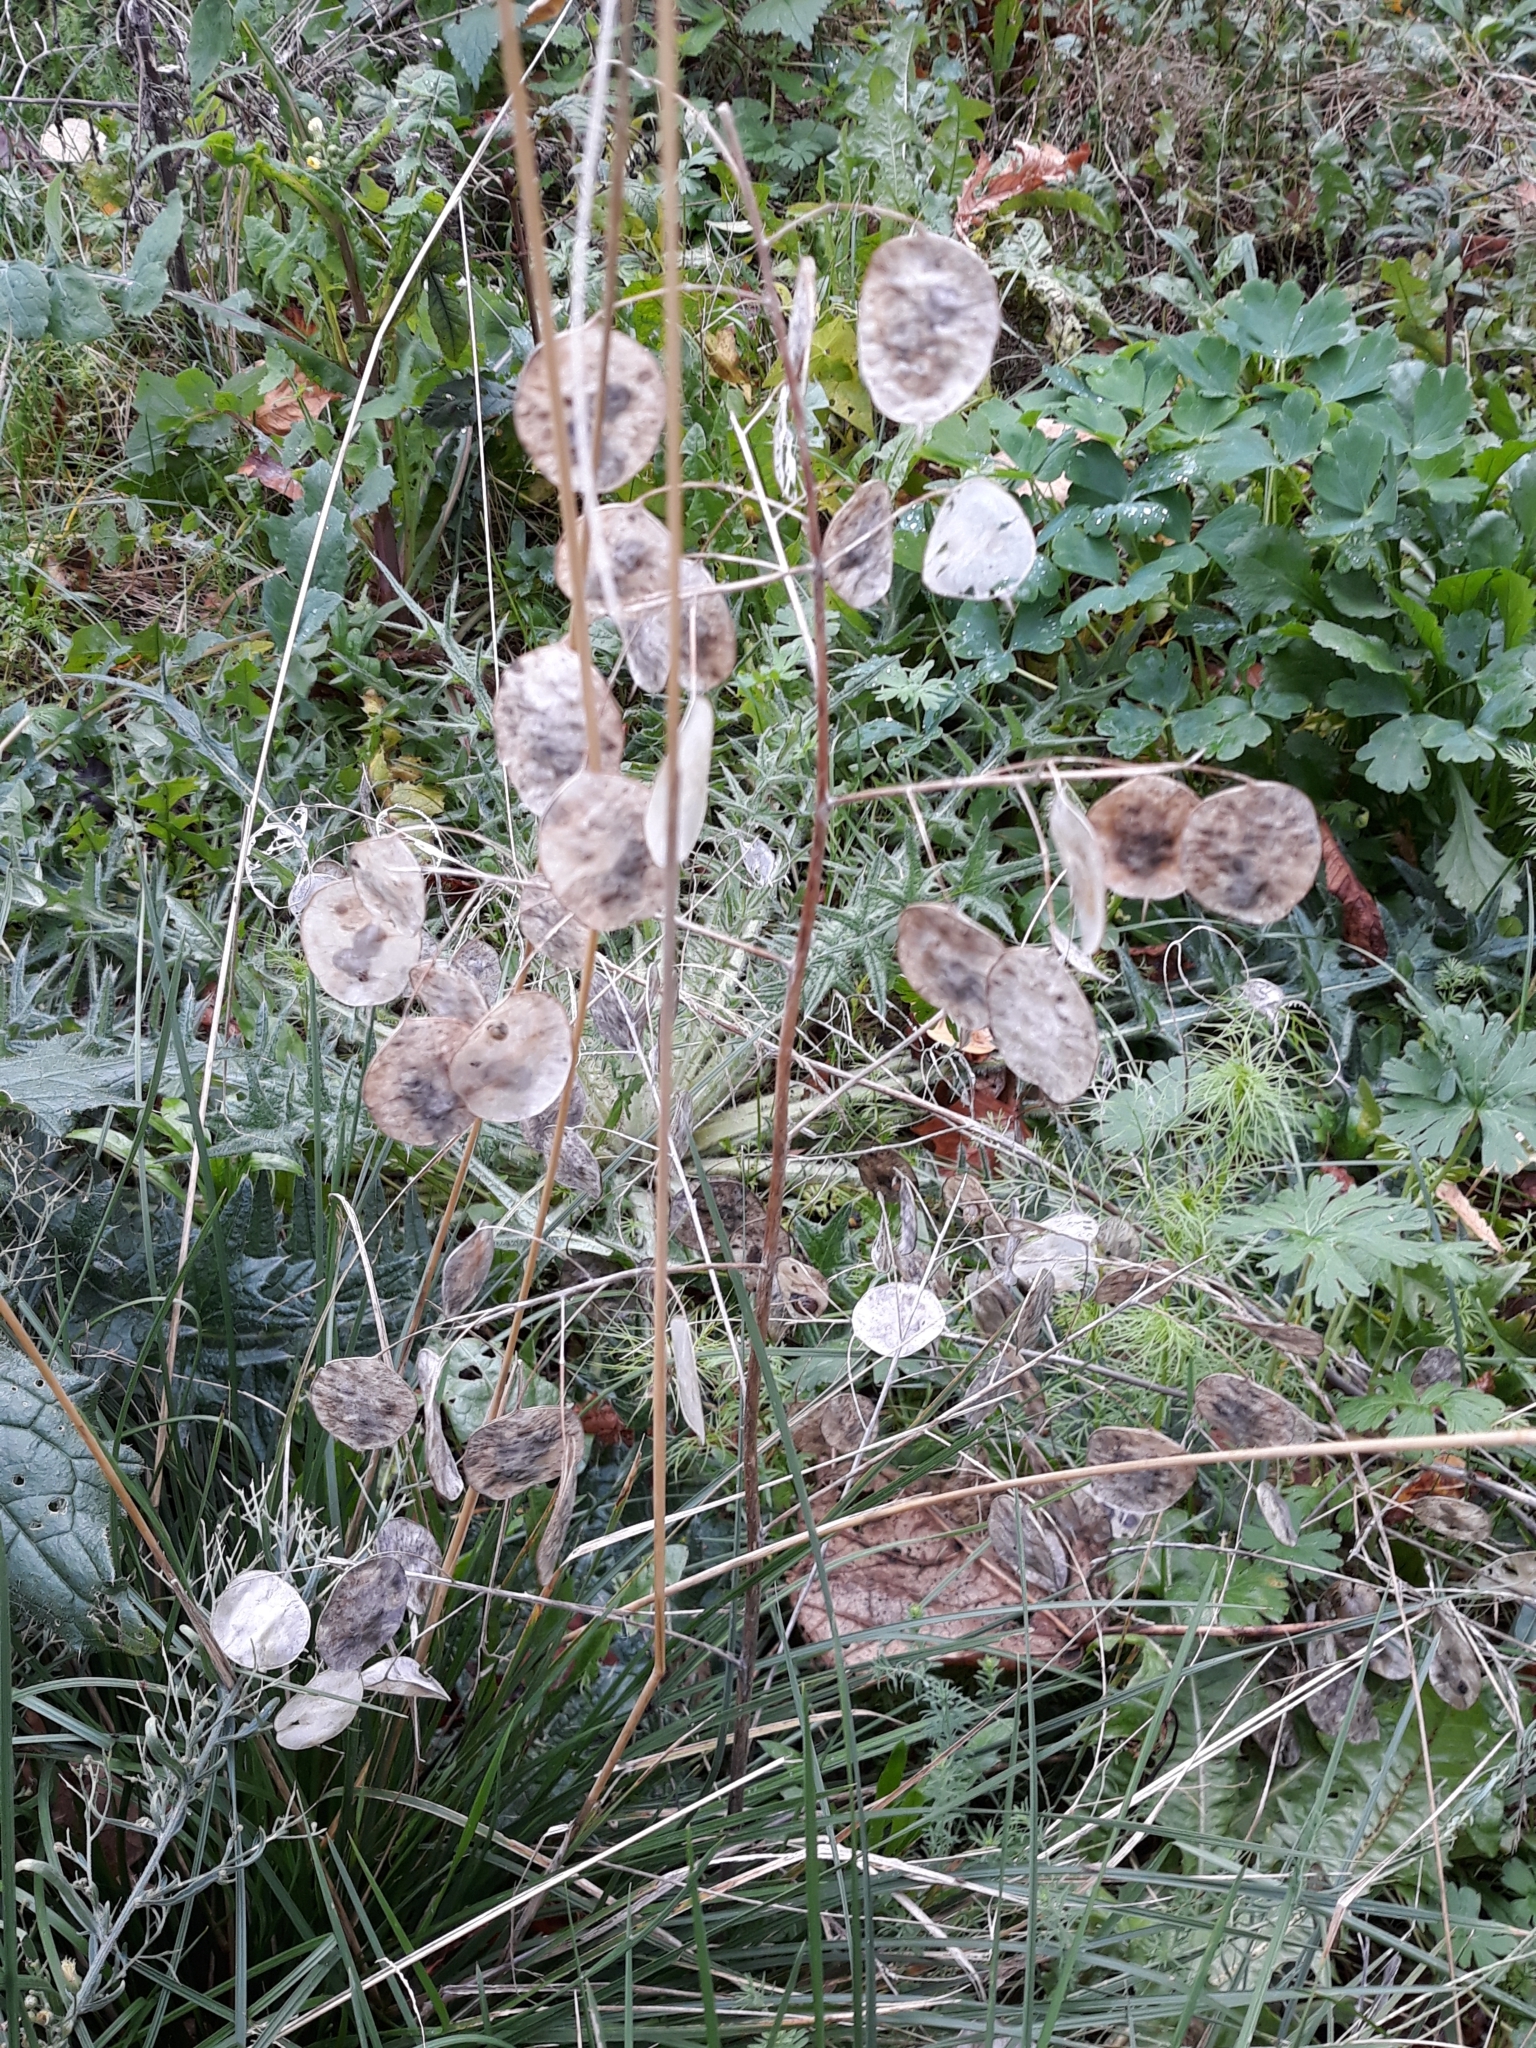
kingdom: Plantae
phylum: Tracheophyta
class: Magnoliopsida
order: Brassicales
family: Brassicaceae
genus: Lunaria
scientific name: Lunaria annua
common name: Honesty
